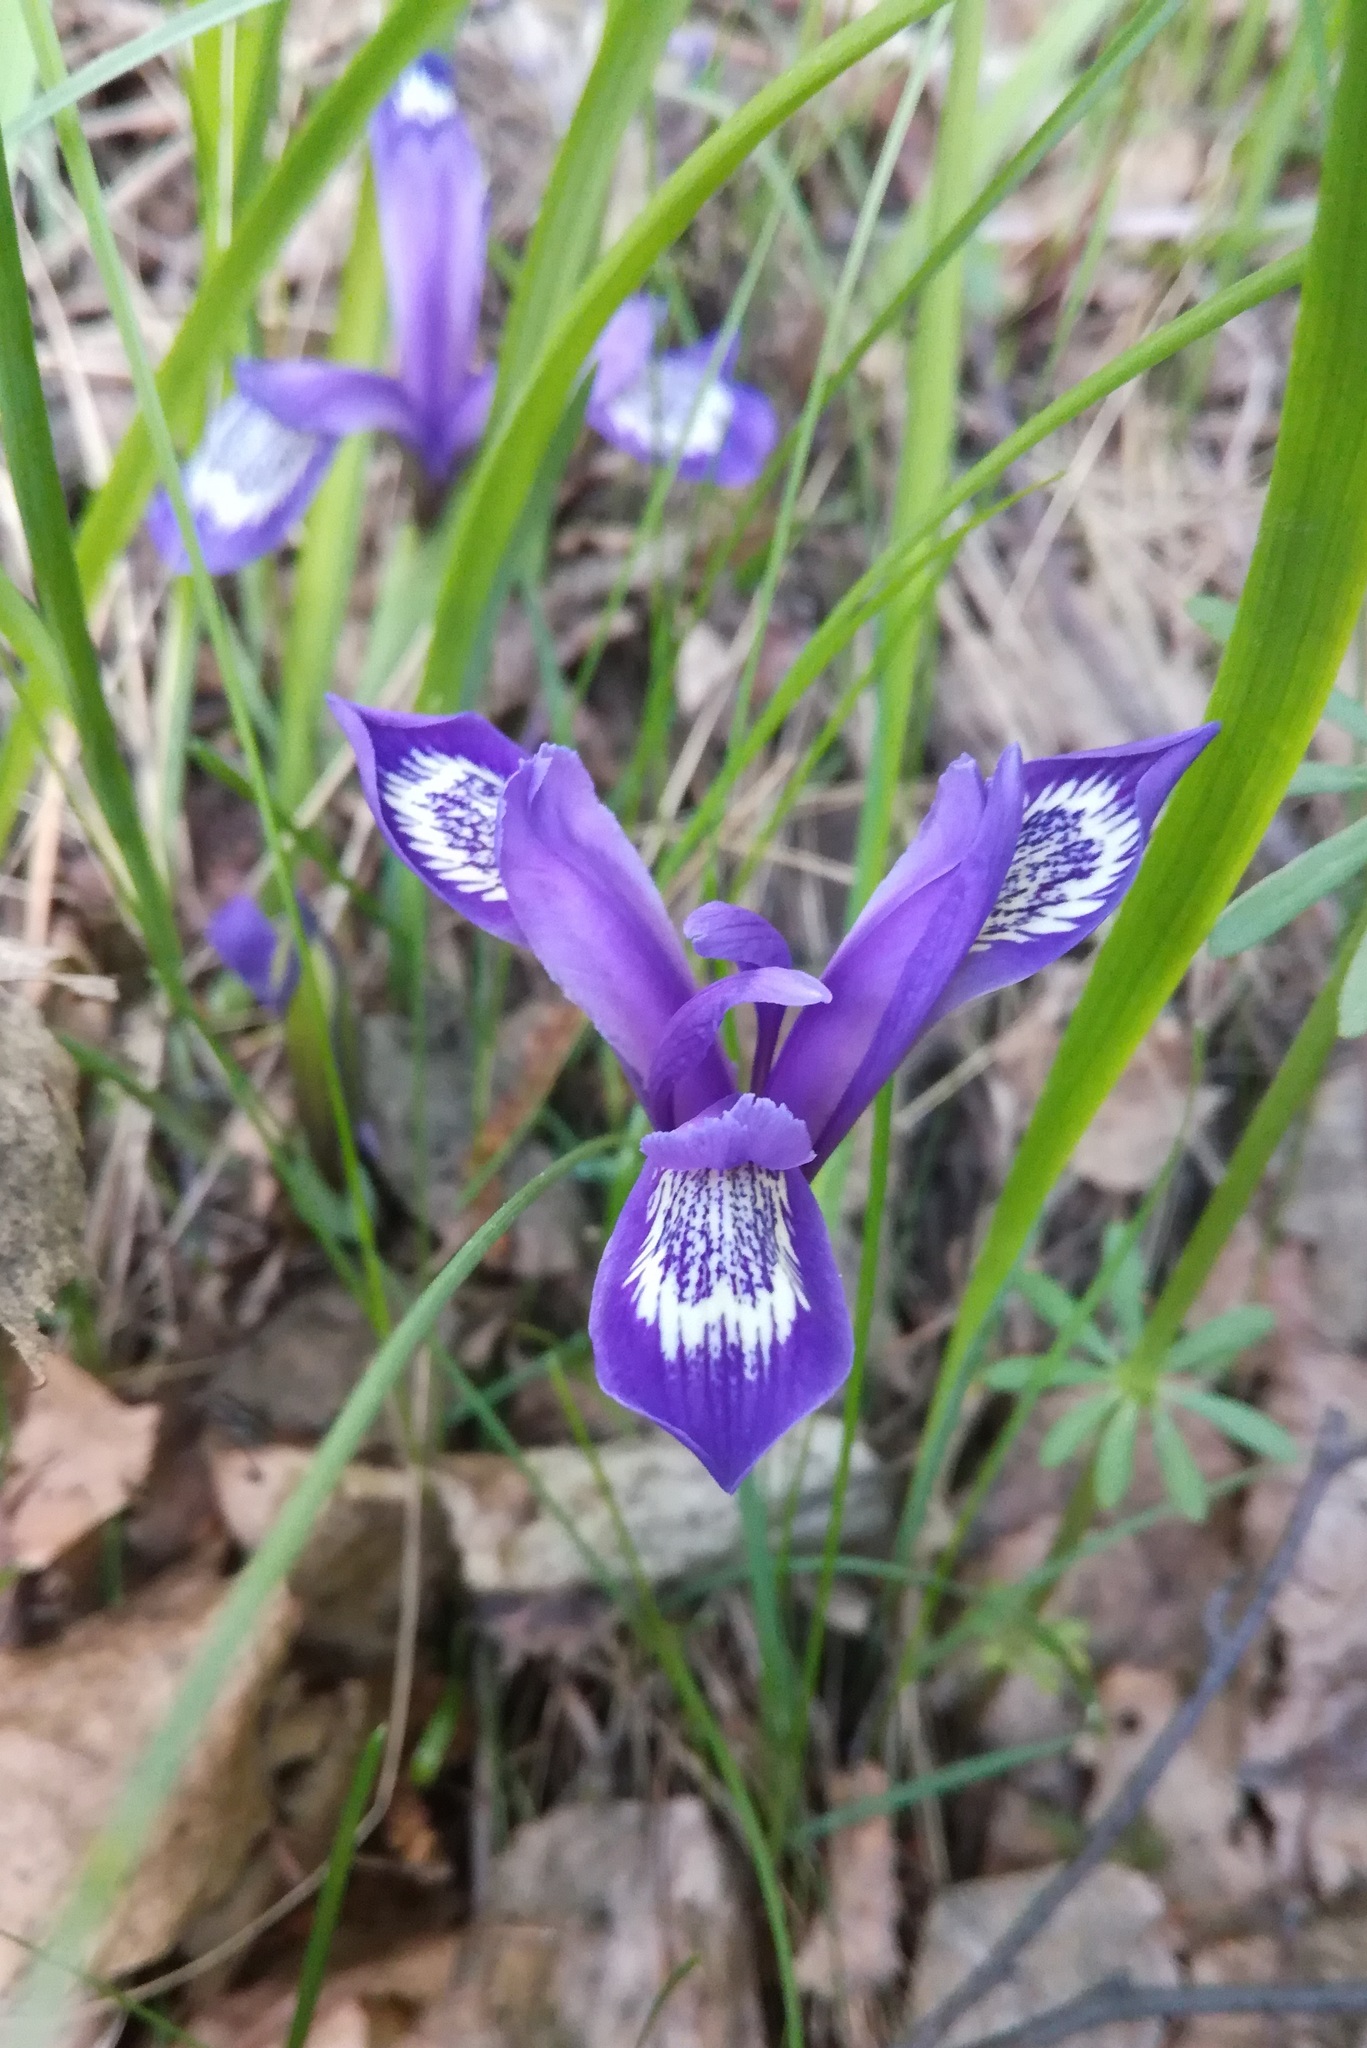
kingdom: Plantae
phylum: Tracheophyta
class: Liliopsida
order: Asparagales
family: Iridaceae
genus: Iris
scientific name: Iris ruthenica
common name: Purple-bract iris
